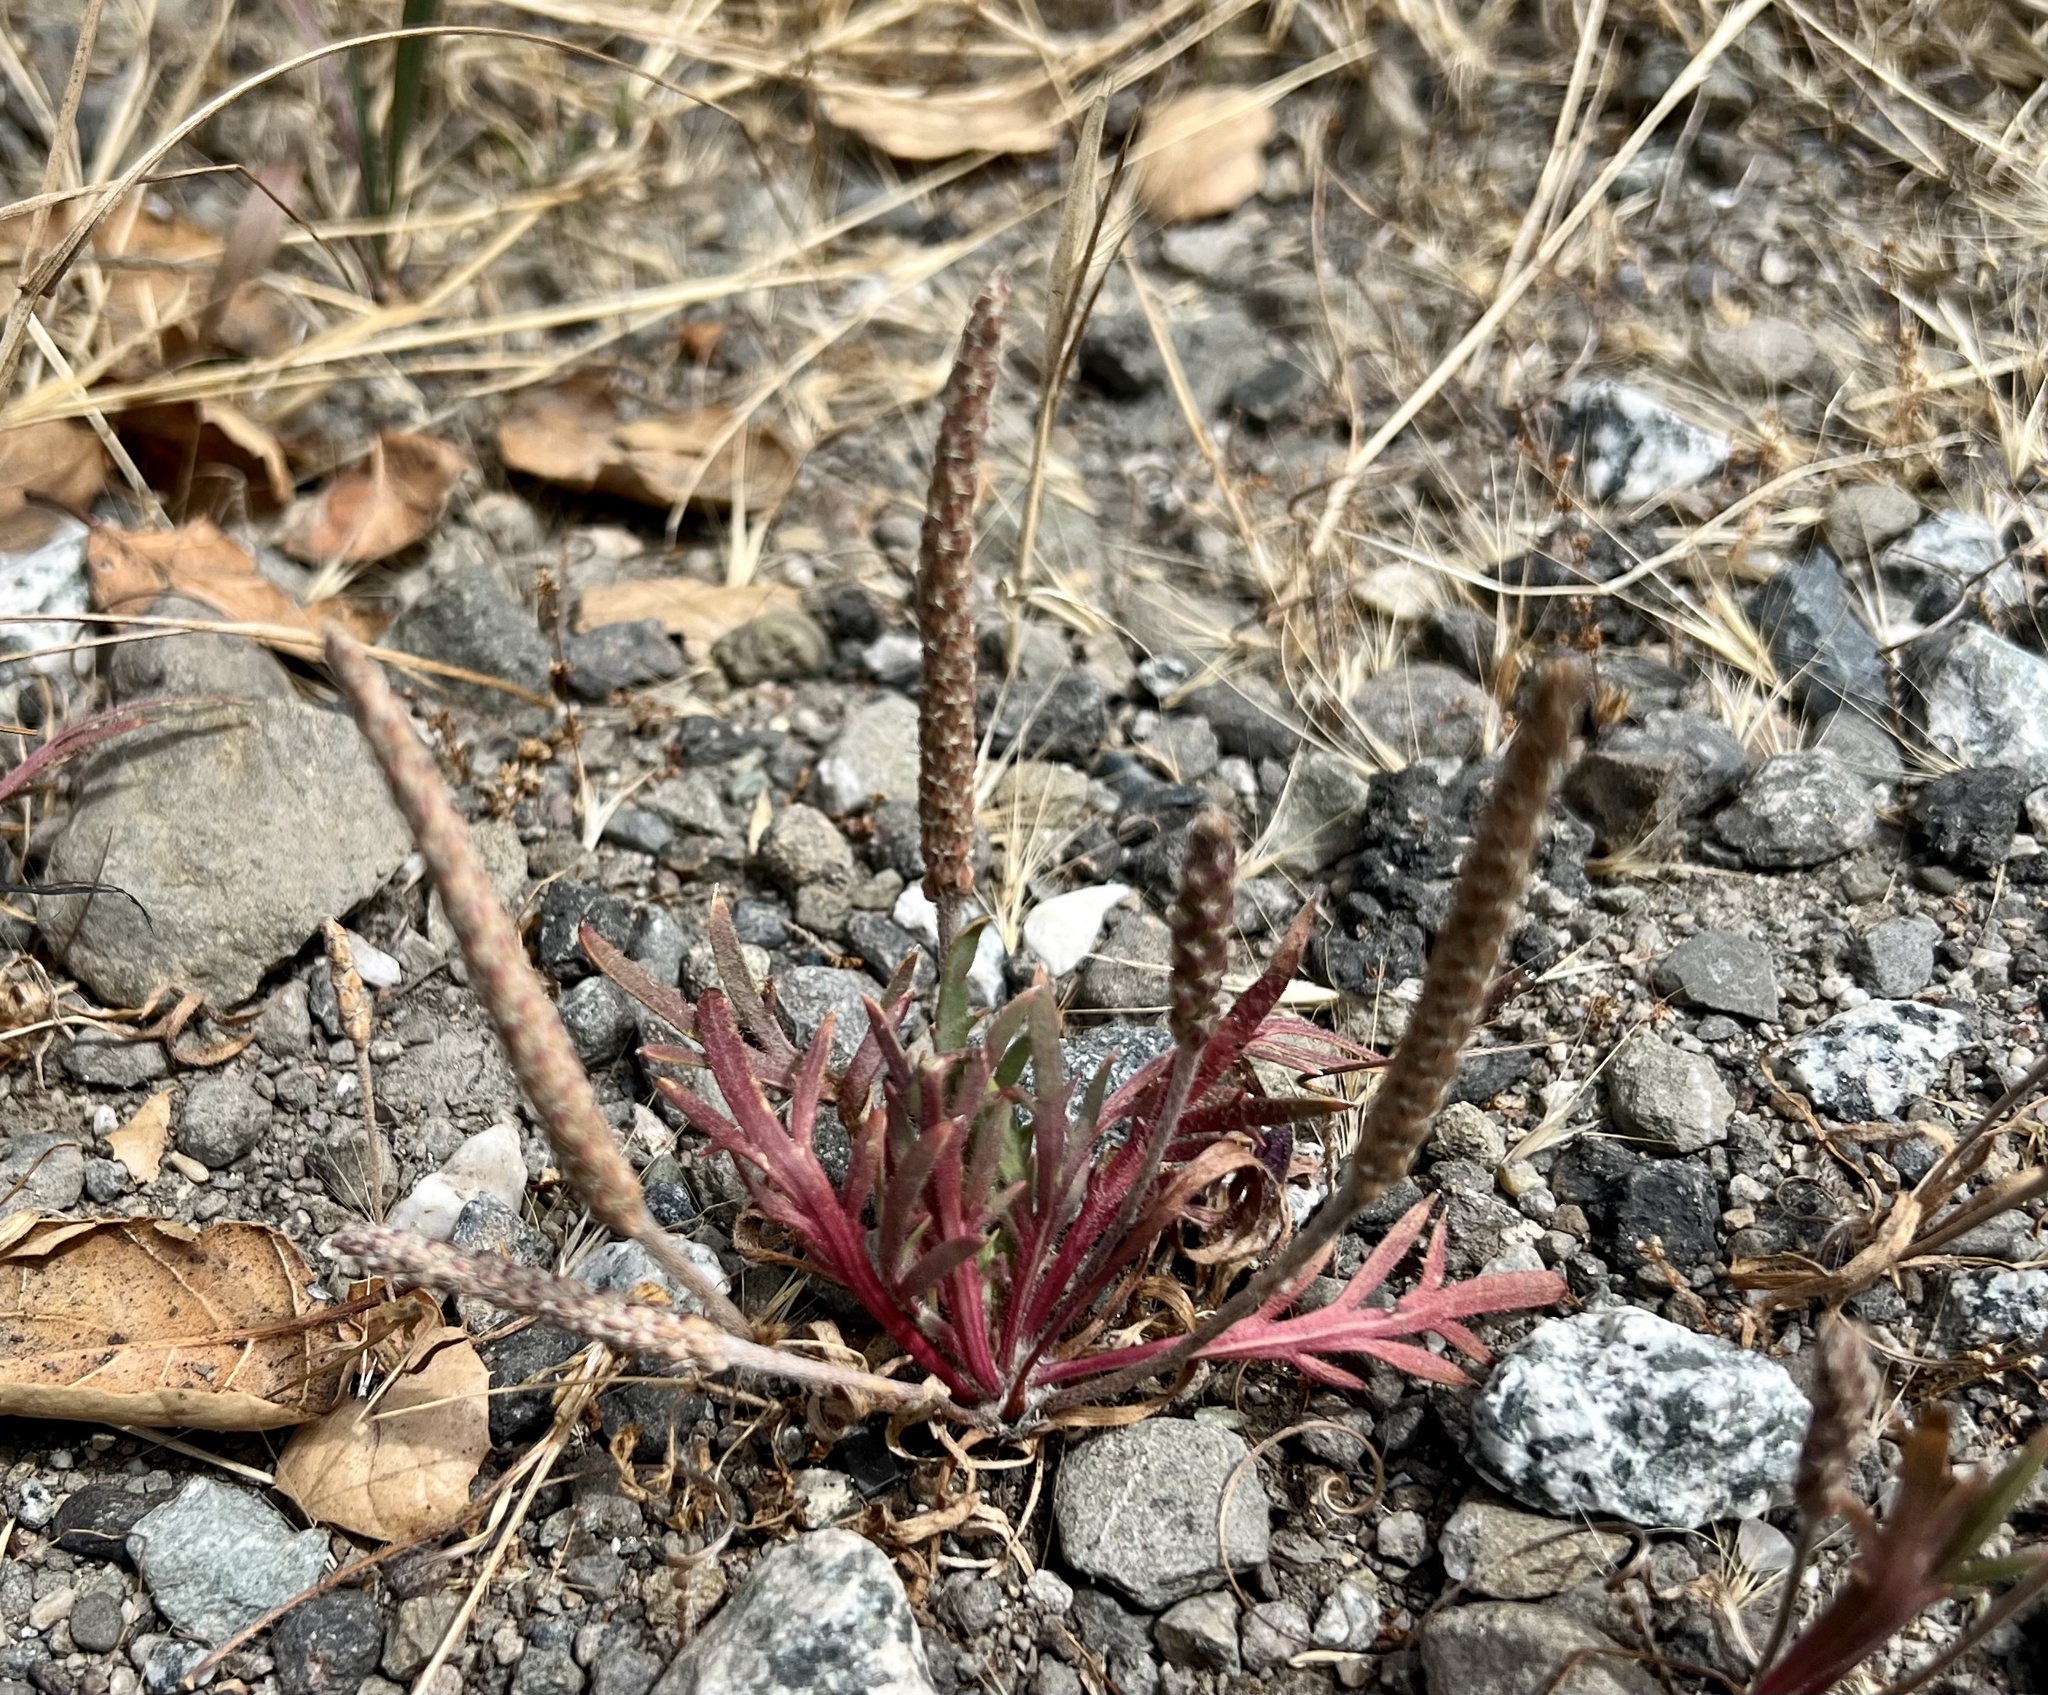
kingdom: Plantae
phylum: Tracheophyta
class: Magnoliopsida
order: Lamiales
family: Plantaginaceae
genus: Plantago
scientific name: Plantago coronopus
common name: Buck's-horn plantain
